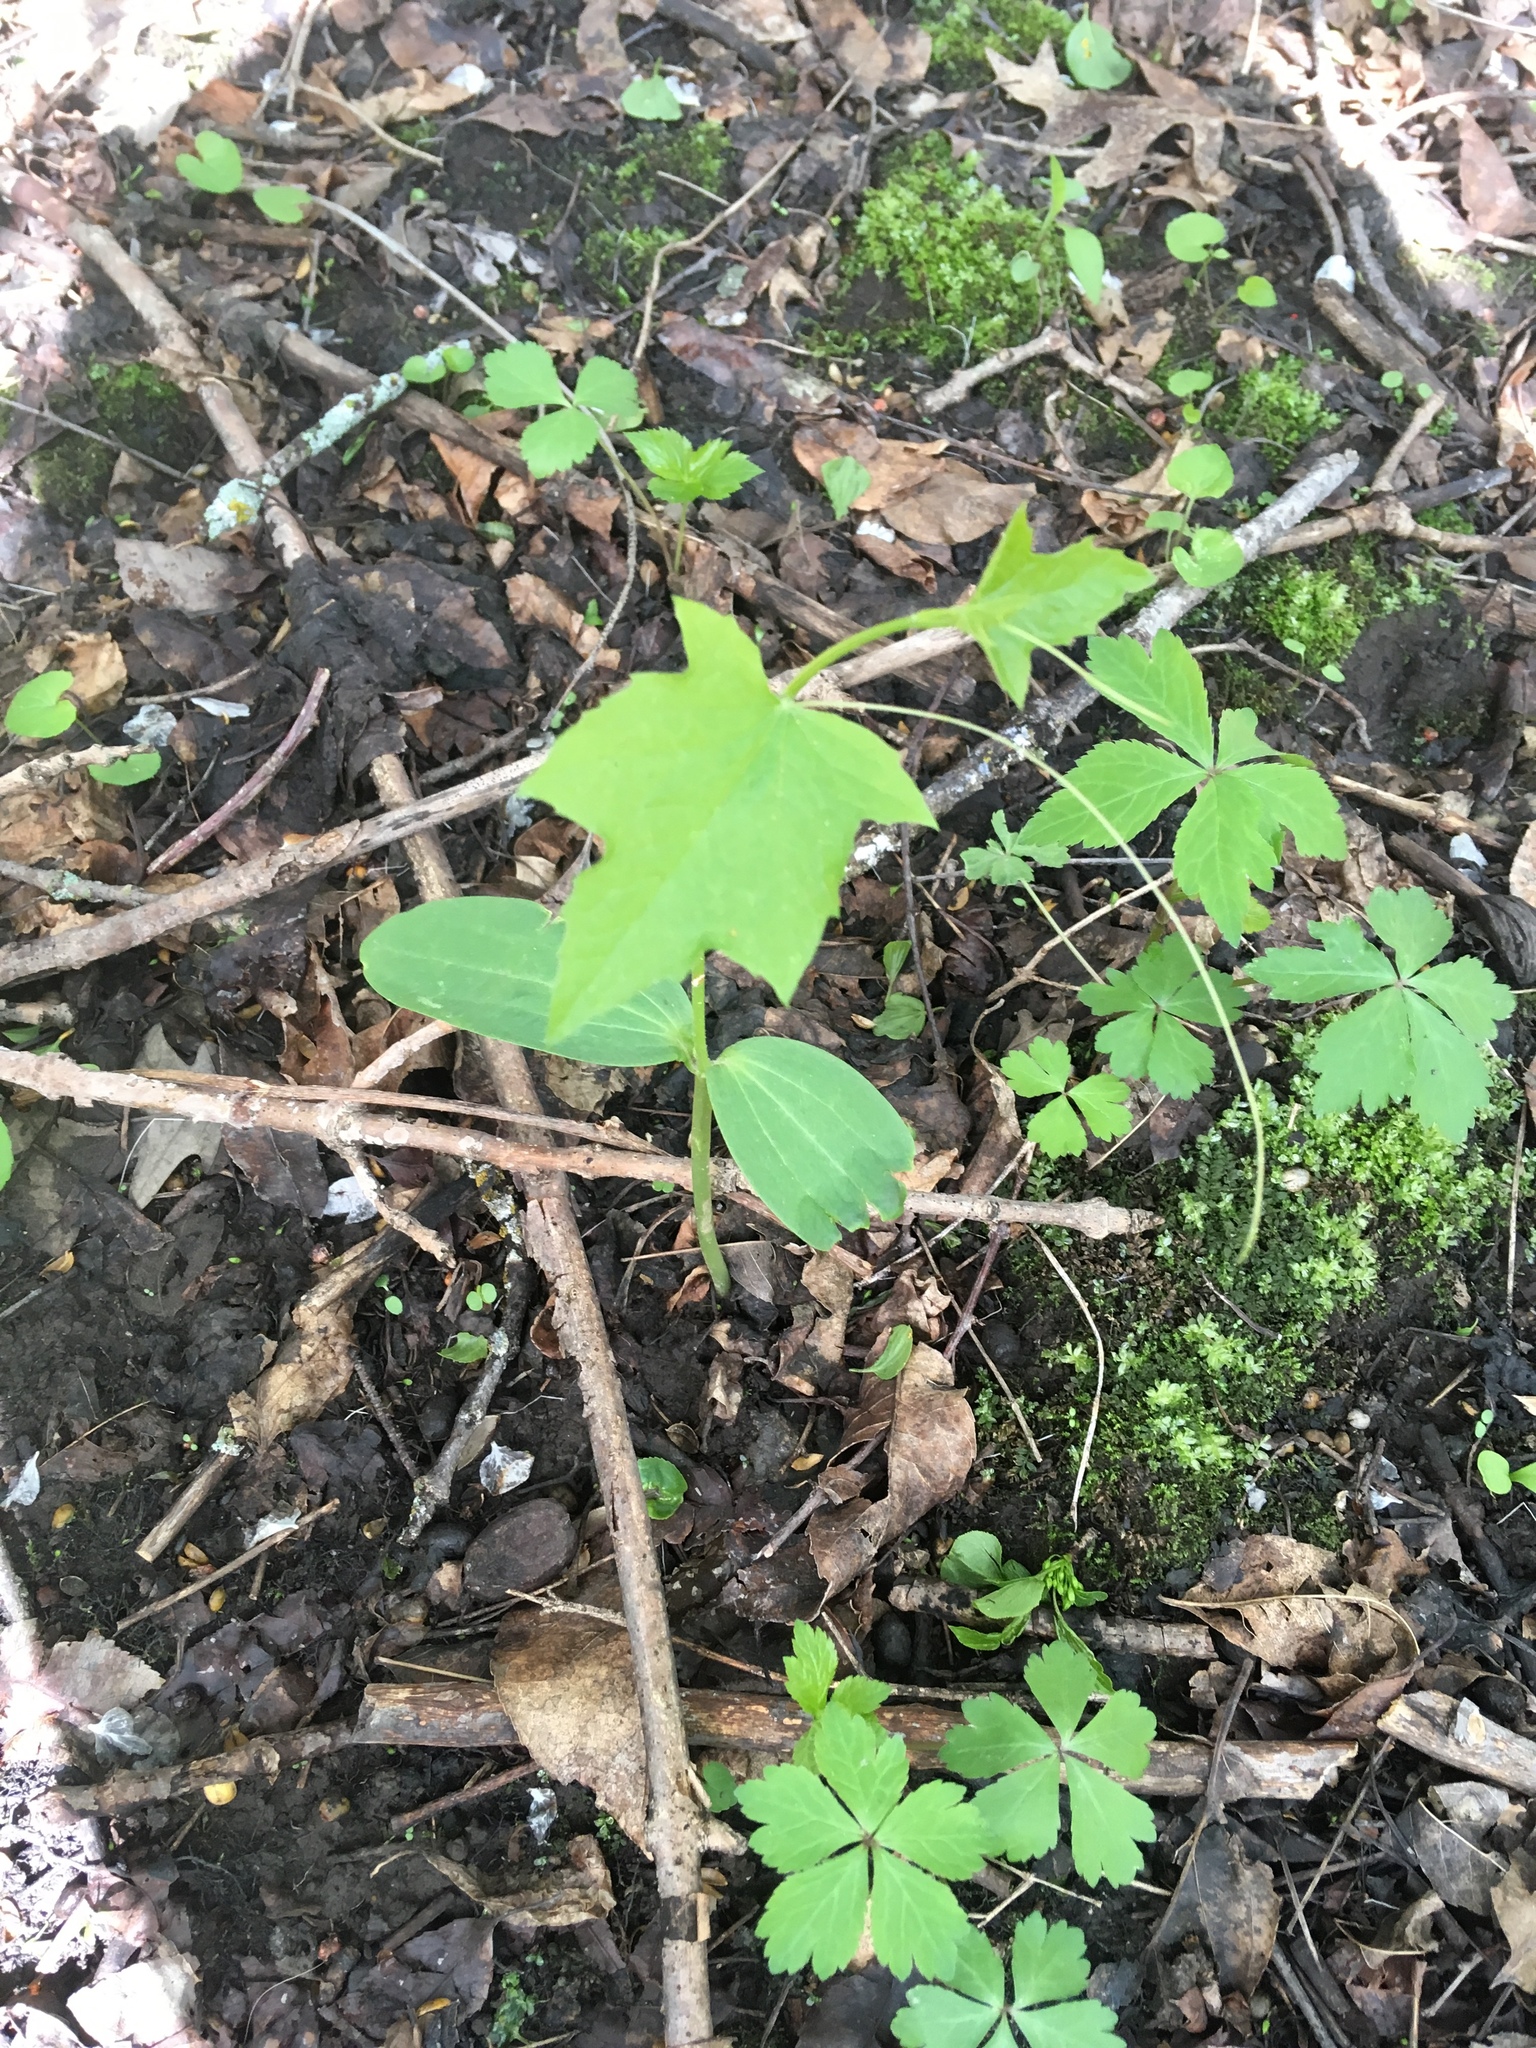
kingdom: Plantae
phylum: Tracheophyta
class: Magnoliopsida
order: Cucurbitales
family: Cucurbitaceae
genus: Echinocystis
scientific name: Echinocystis lobata
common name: Wild cucumber
